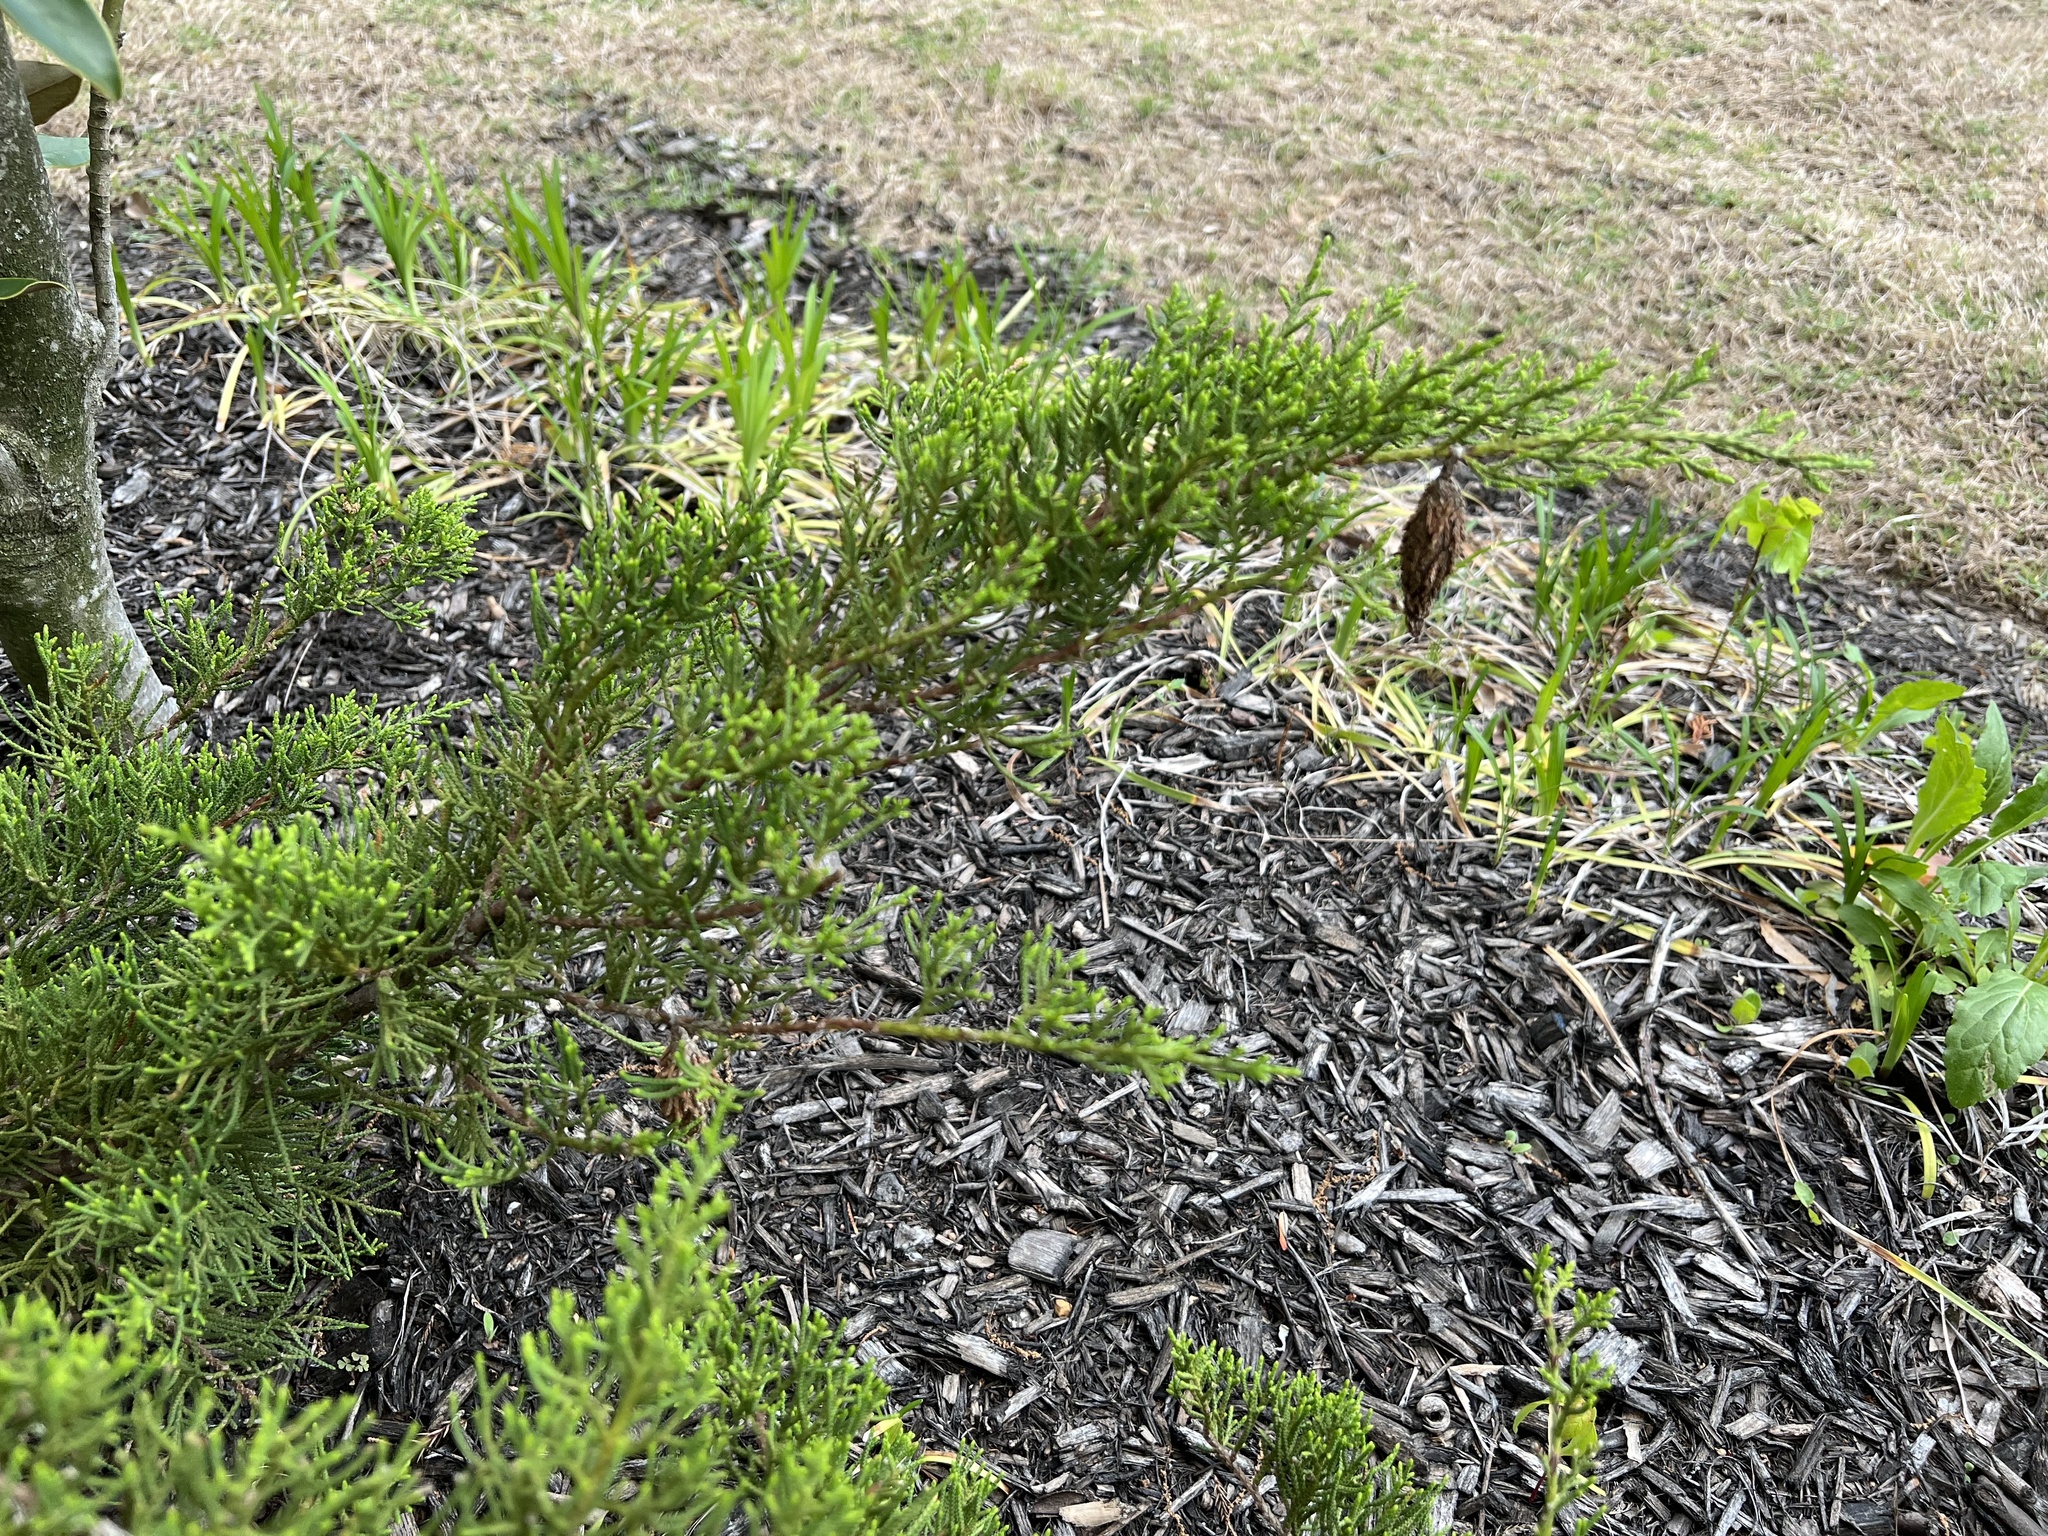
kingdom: Animalia
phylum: Arthropoda
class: Insecta
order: Lepidoptera
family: Psychidae
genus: Thyridopteryx
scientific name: Thyridopteryx ephemeraeformis
